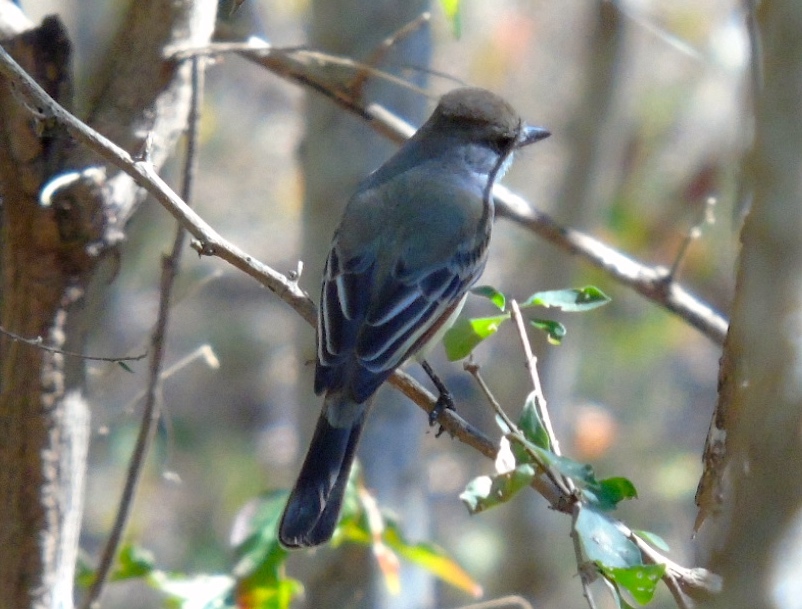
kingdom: Animalia
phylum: Chordata
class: Aves
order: Passeriformes
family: Tyrannidae
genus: Myiarchus
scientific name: Myiarchus nuttingi
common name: Nutting's flycatcher
